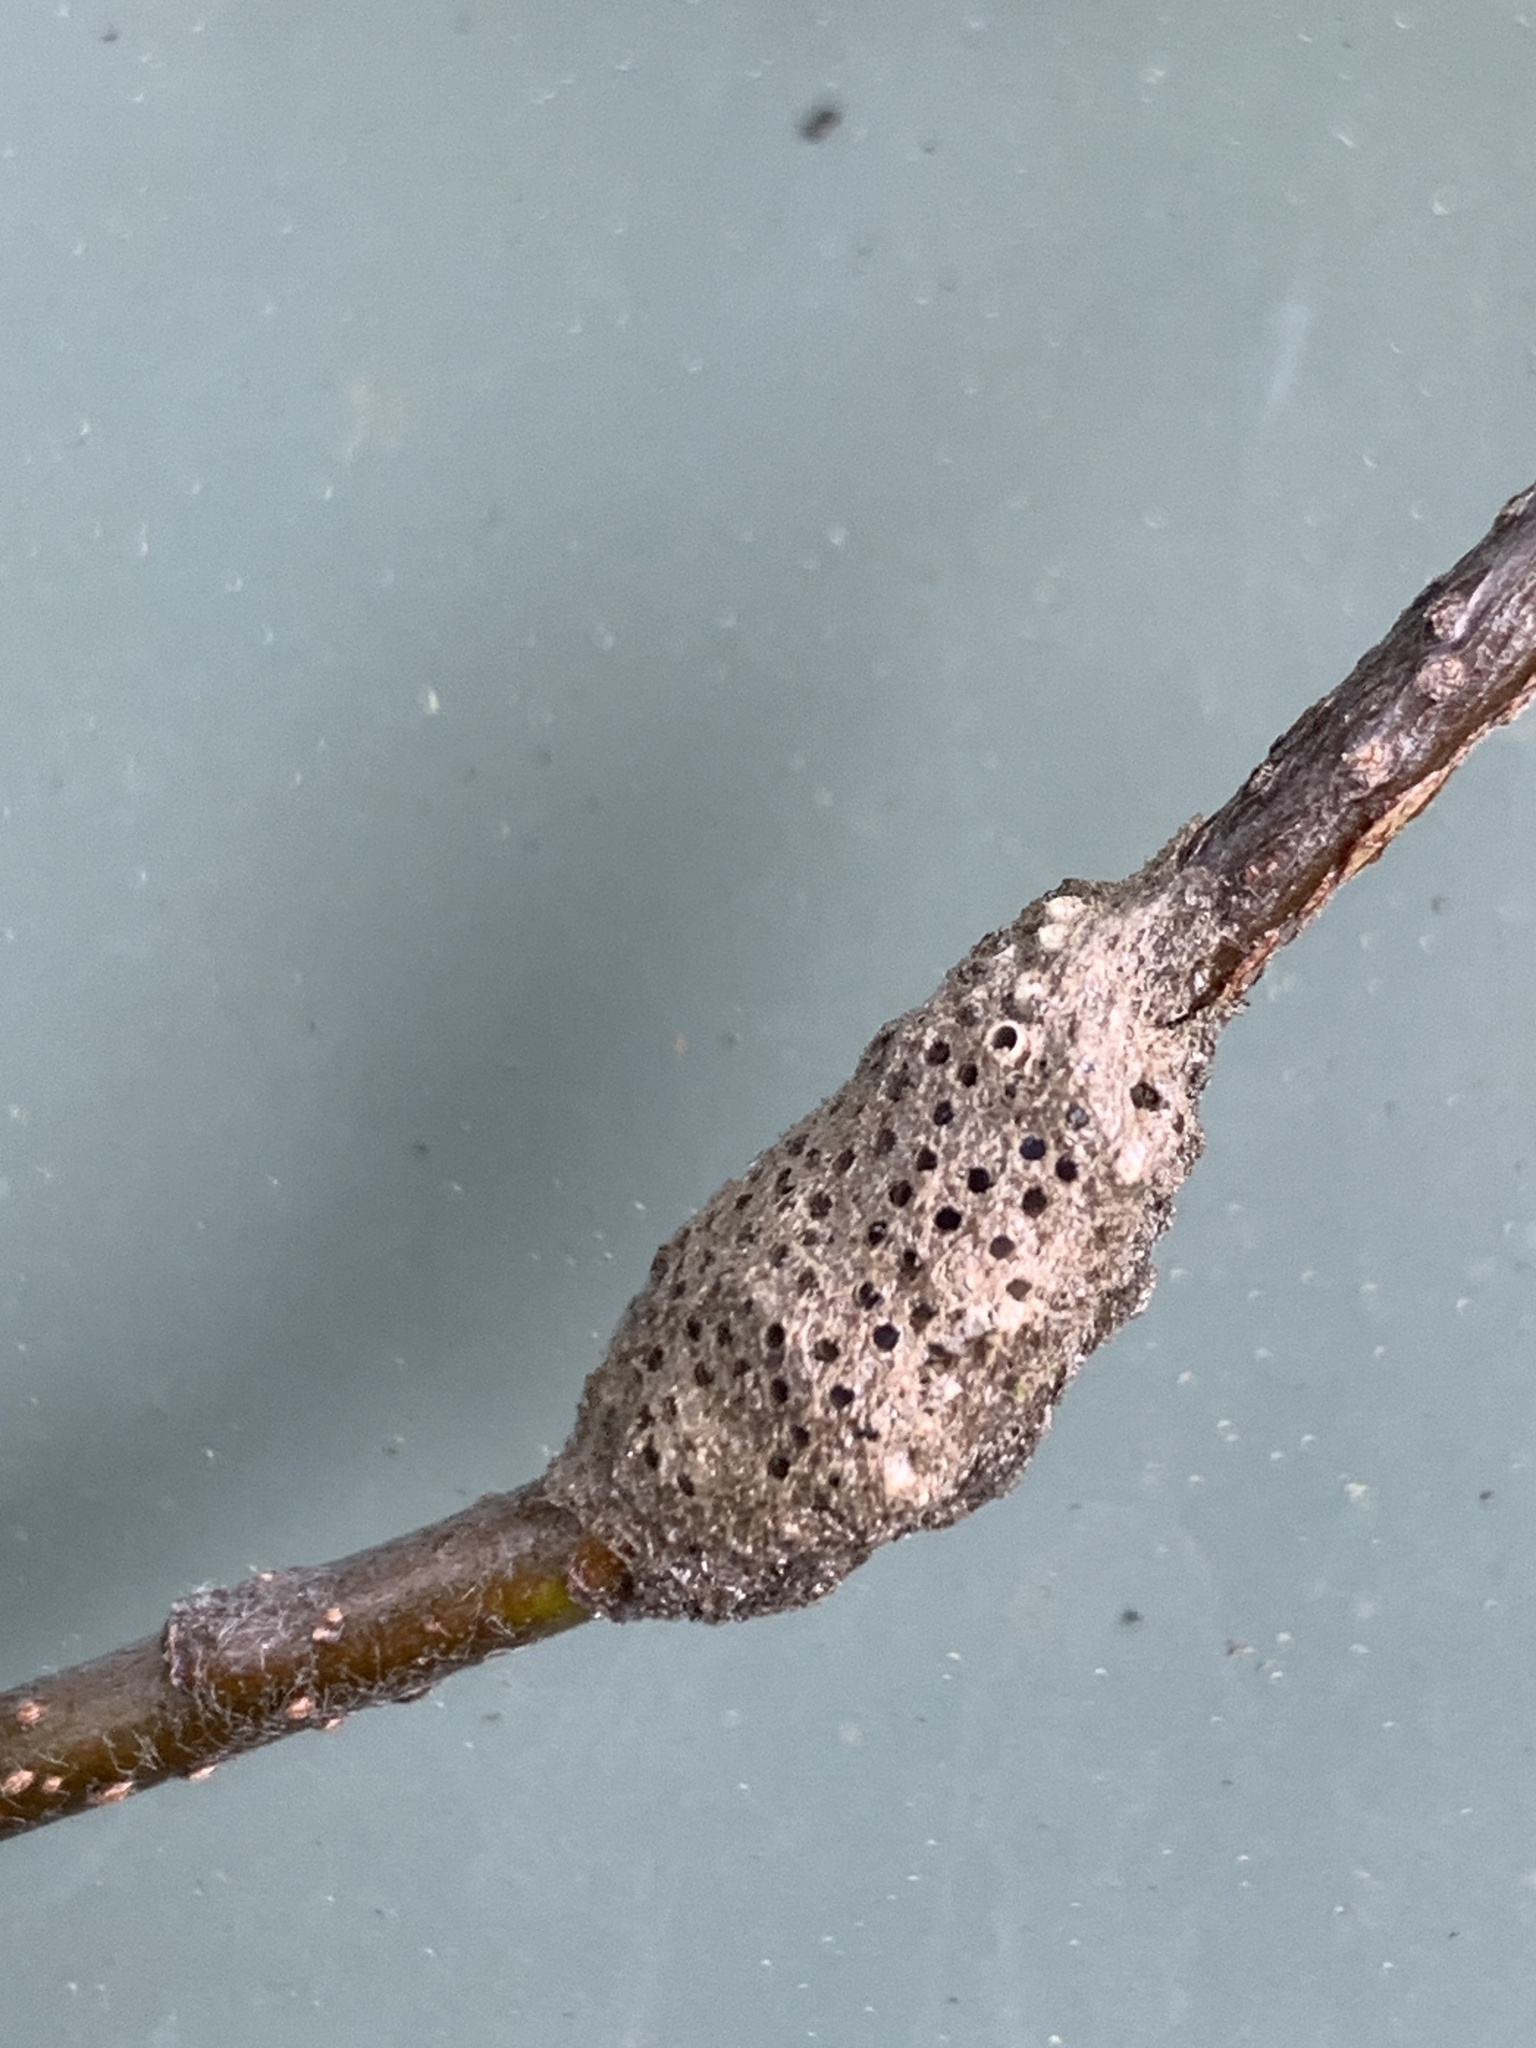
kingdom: Animalia
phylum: Arthropoda
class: Insecta
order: Lepidoptera
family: Lasiocampidae
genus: Malacosoma
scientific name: Malacosoma californica
